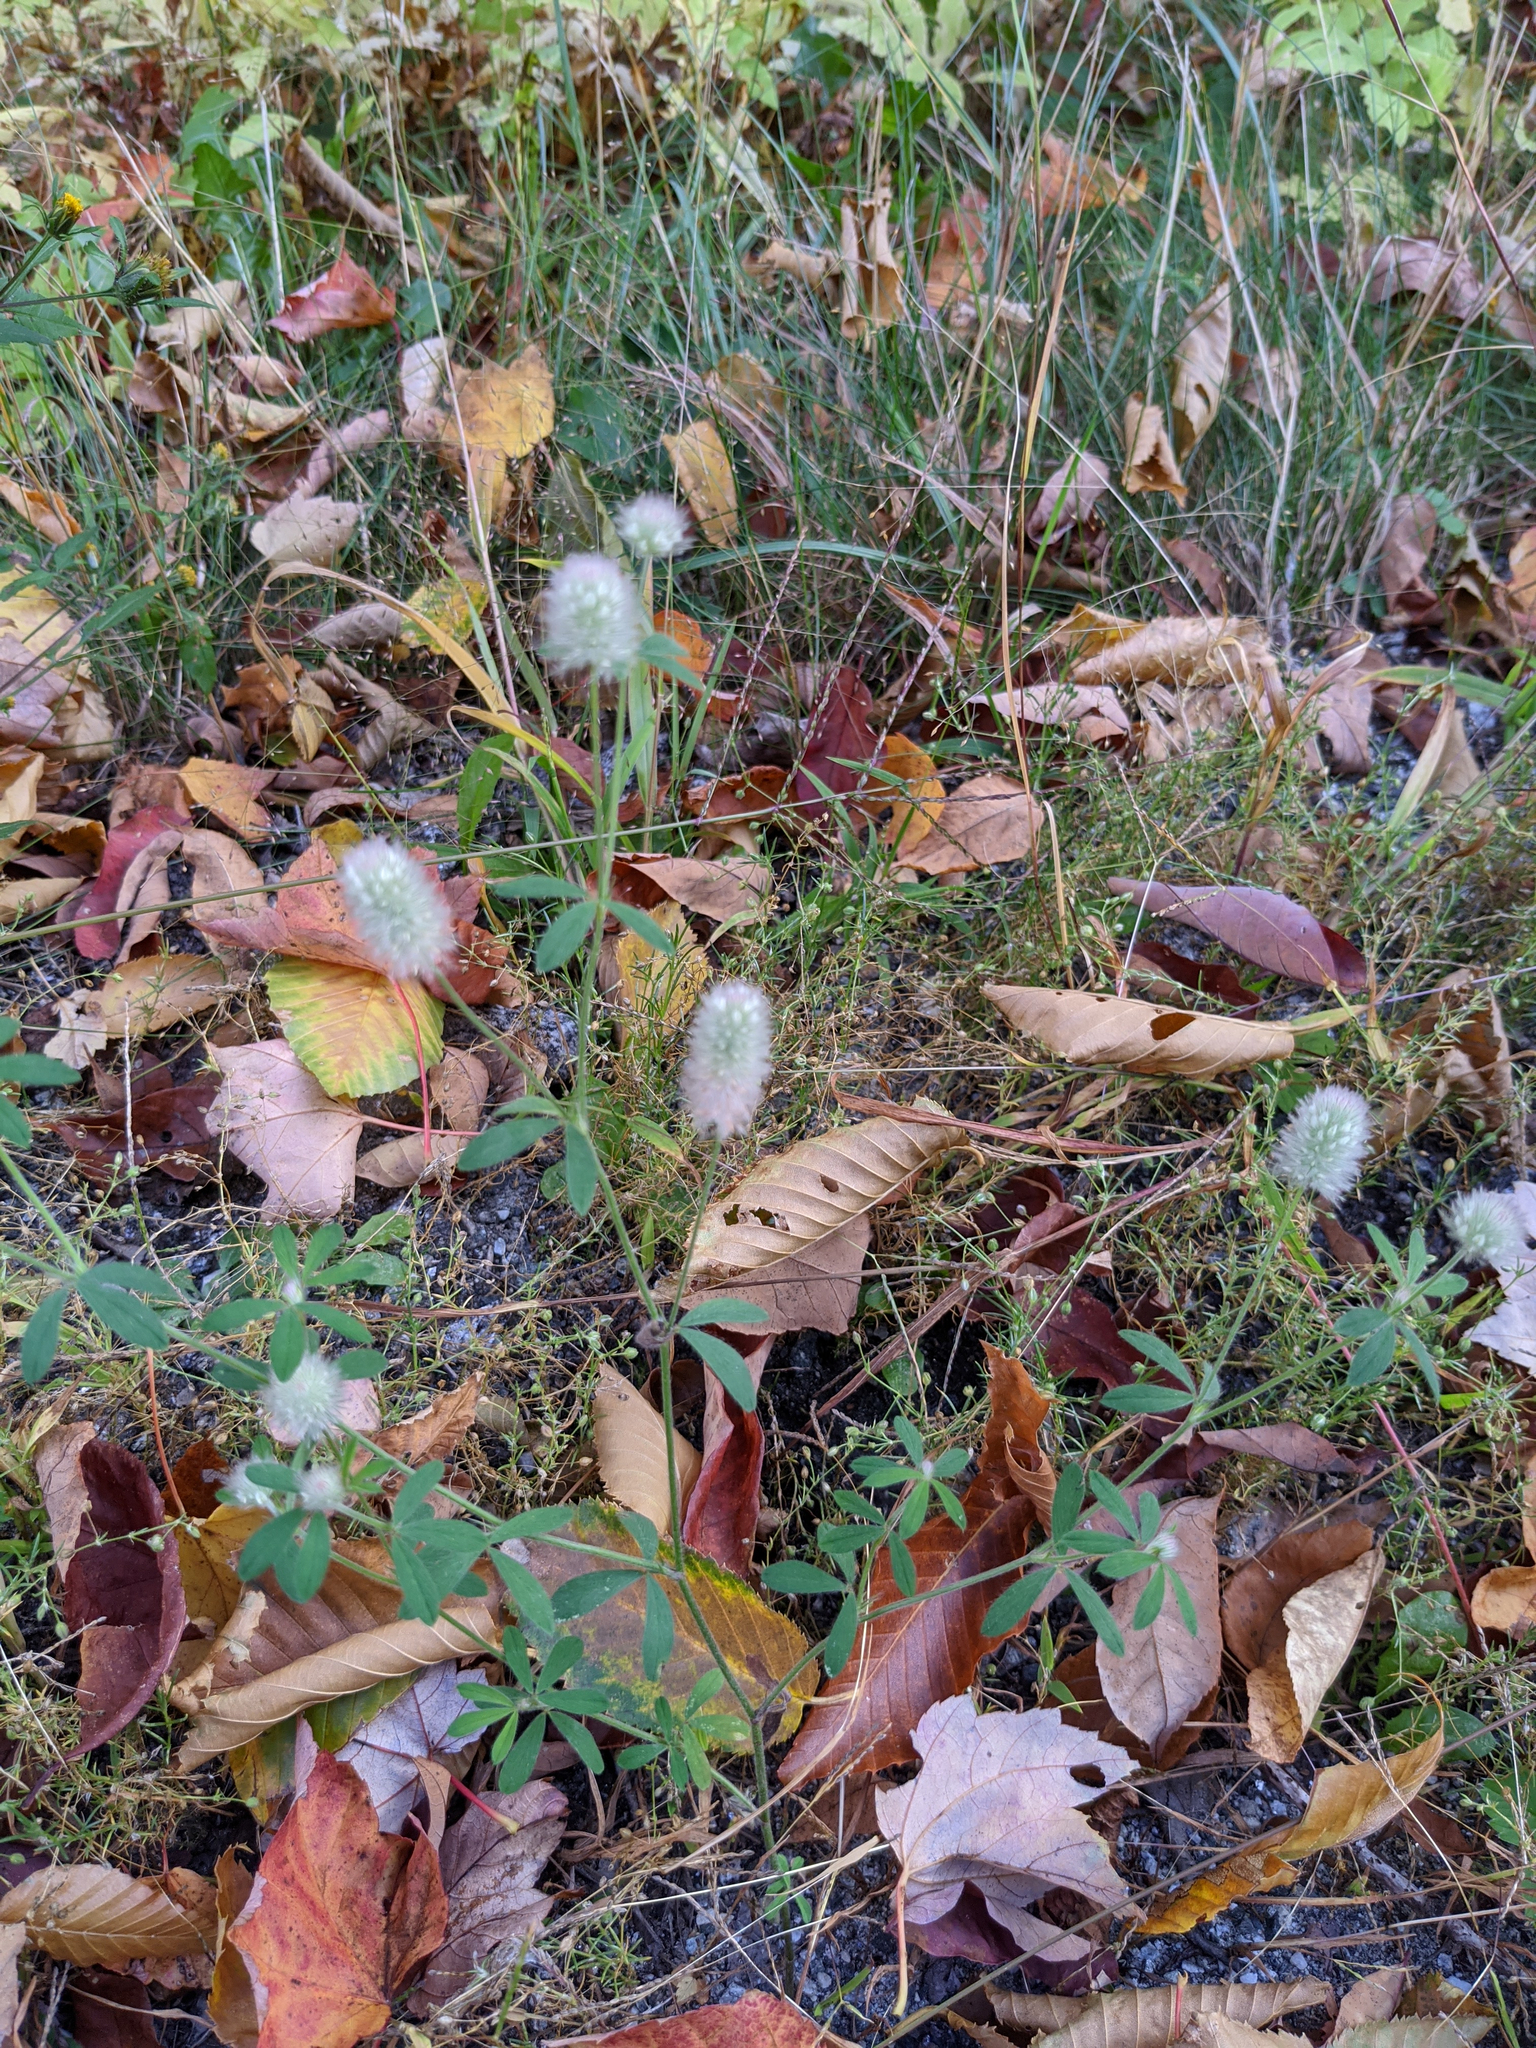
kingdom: Plantae
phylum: Tracheophyta
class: Magnoliopsida
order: Fabales
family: Fabaceae
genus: Trifolium
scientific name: Trifolium arvense
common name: Hare's-foot clover
